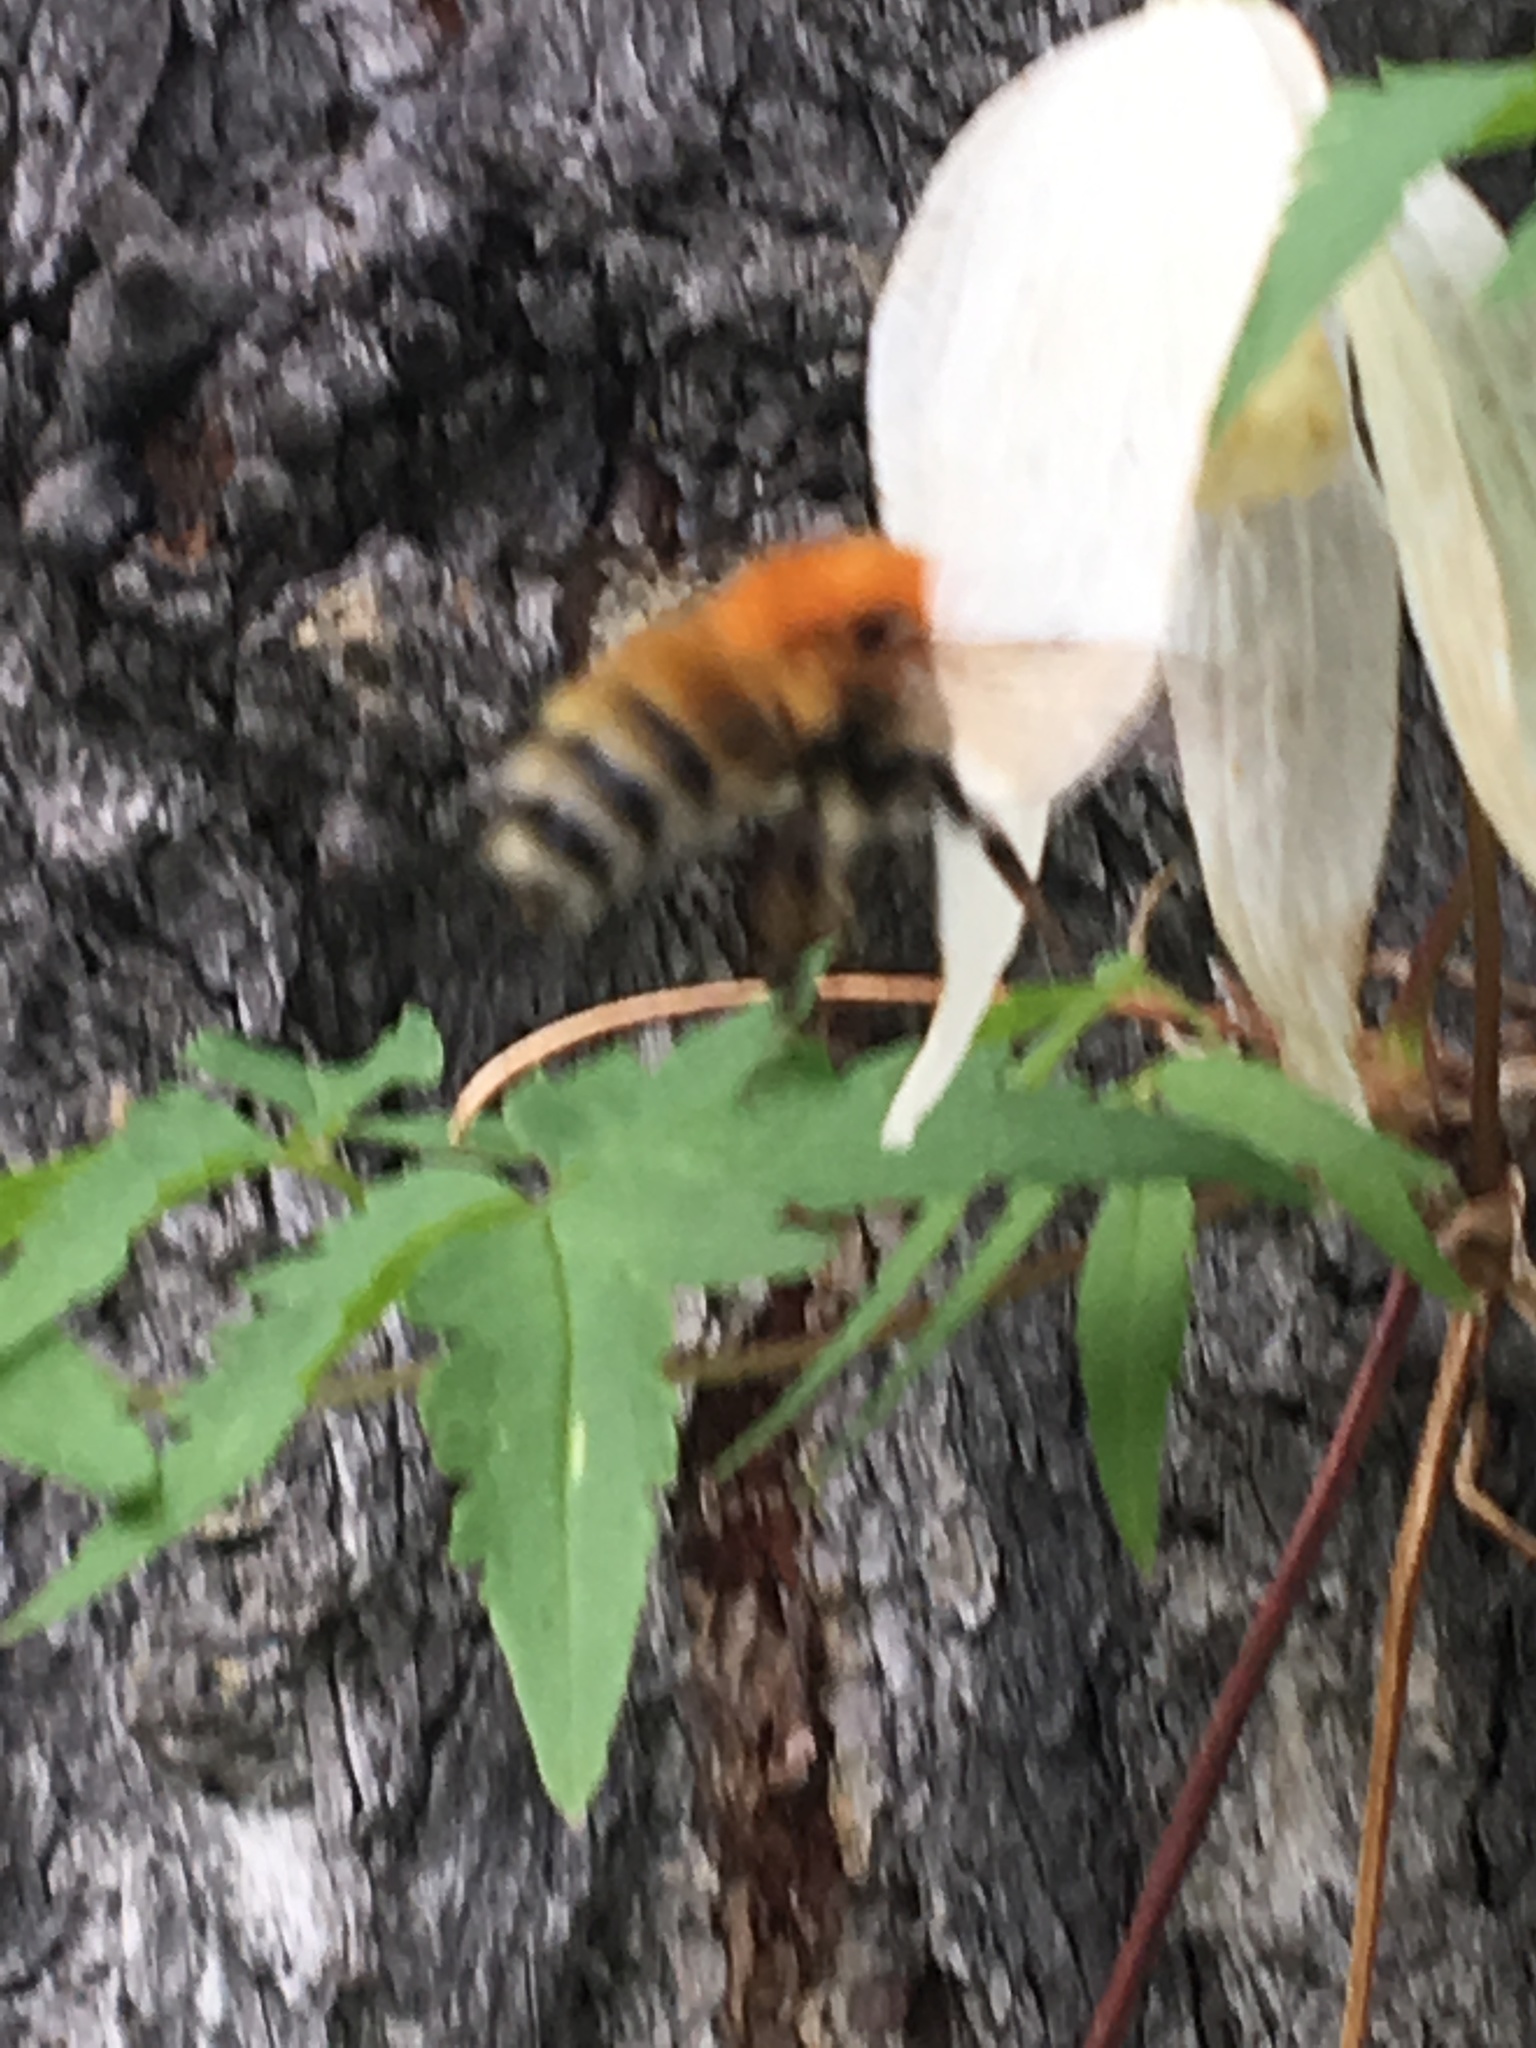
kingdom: Animalia
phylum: Arthropoda
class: Insecta
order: Hymenoptera
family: Apidae
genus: Bombus
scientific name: Bombus schrencki
